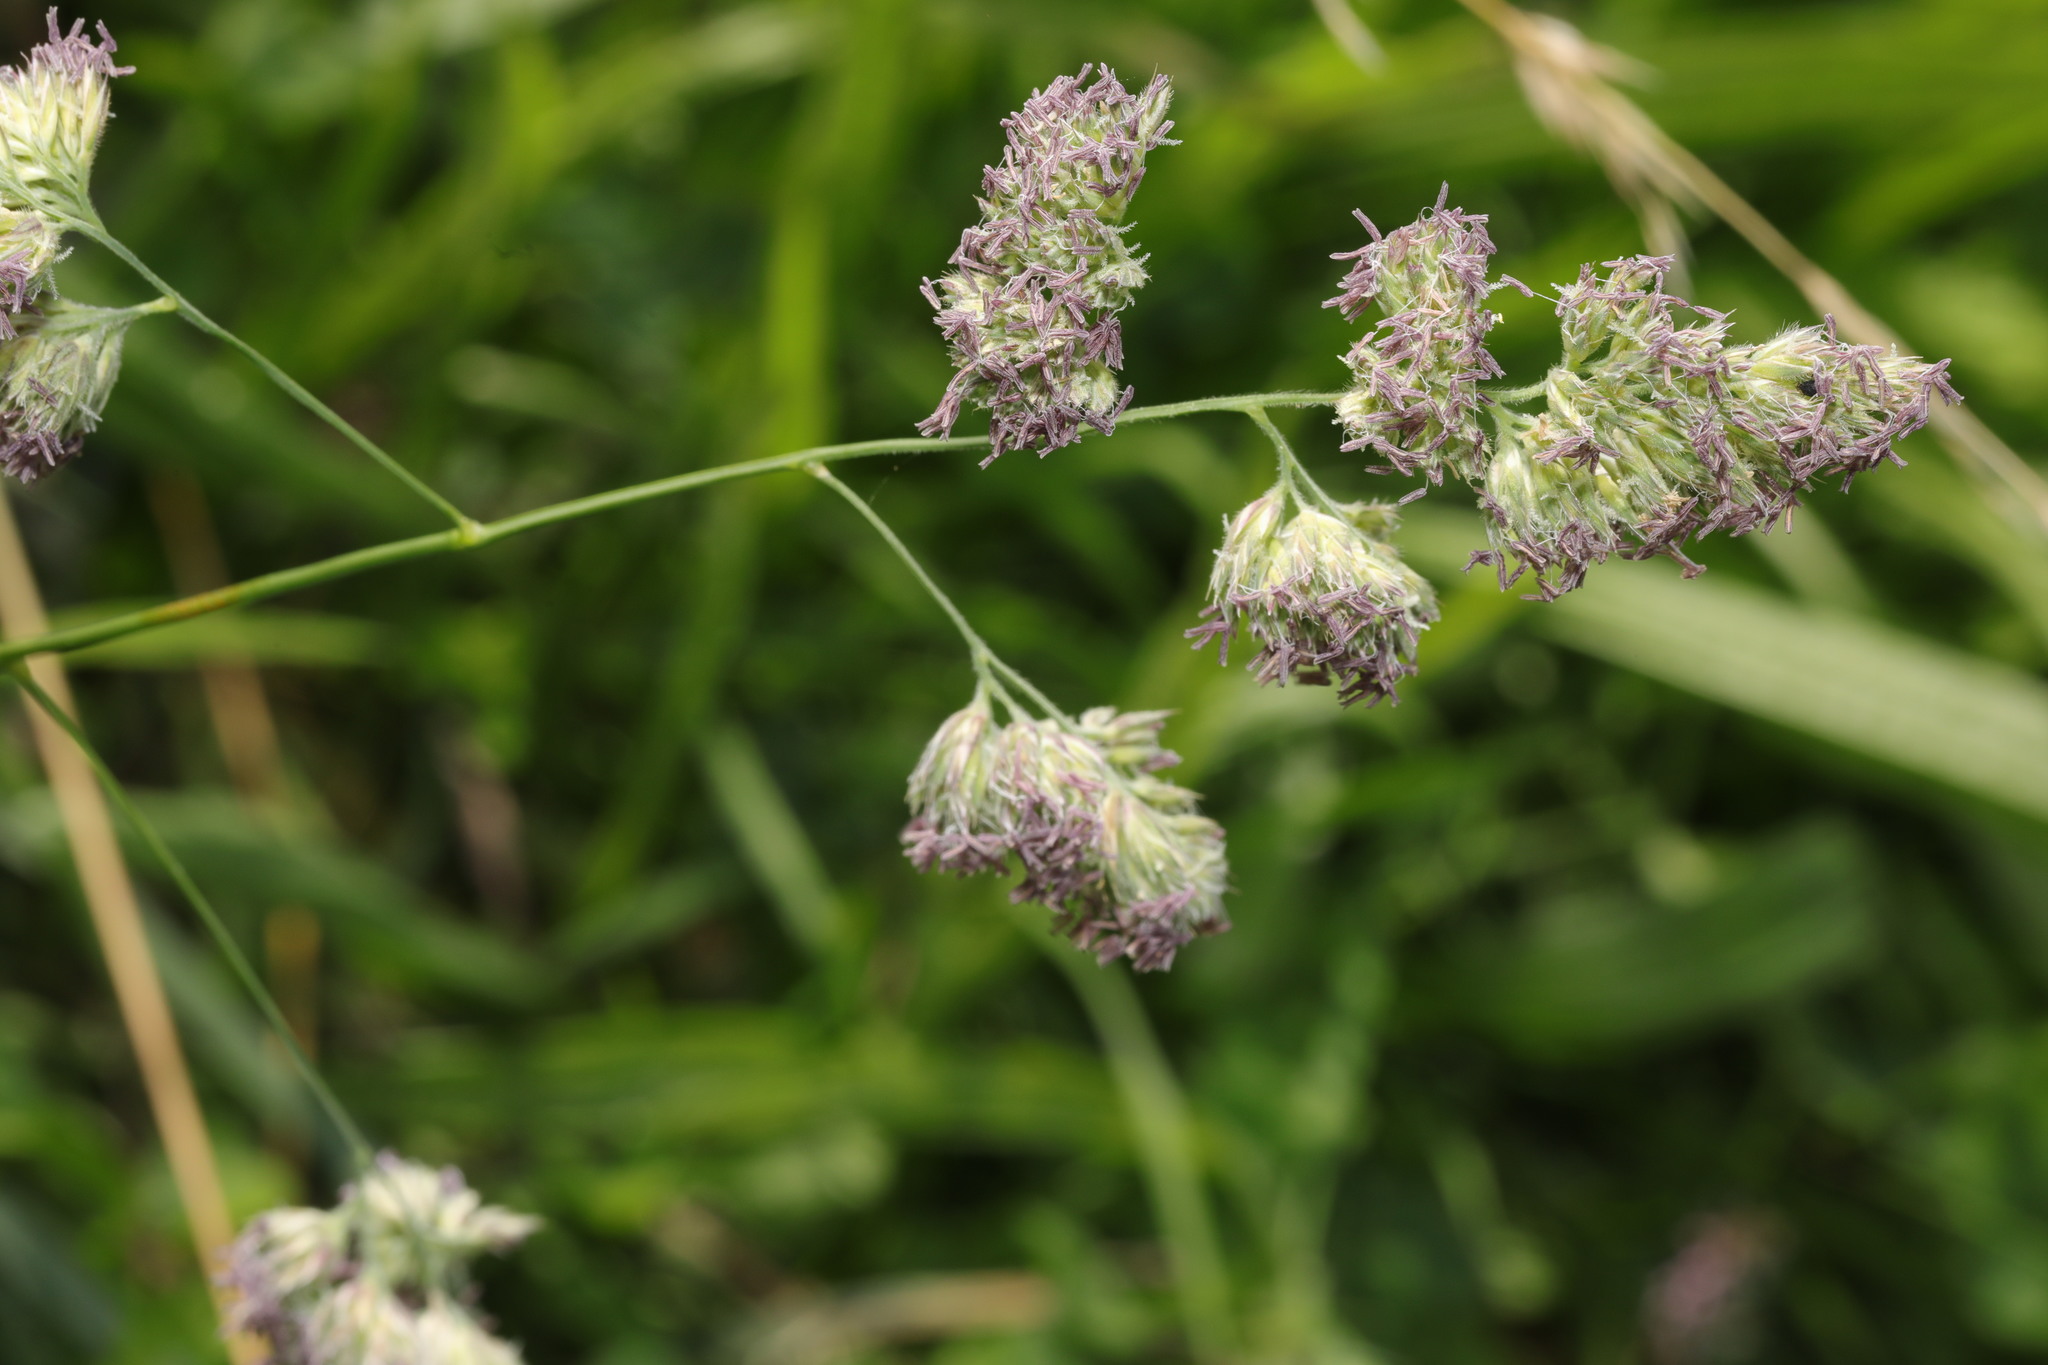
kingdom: Plantae
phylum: Tracheophyta
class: Liliopsida
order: Poales
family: Poaceae
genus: Dactylis
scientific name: Dactylis glomerata
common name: Orchardgrass
